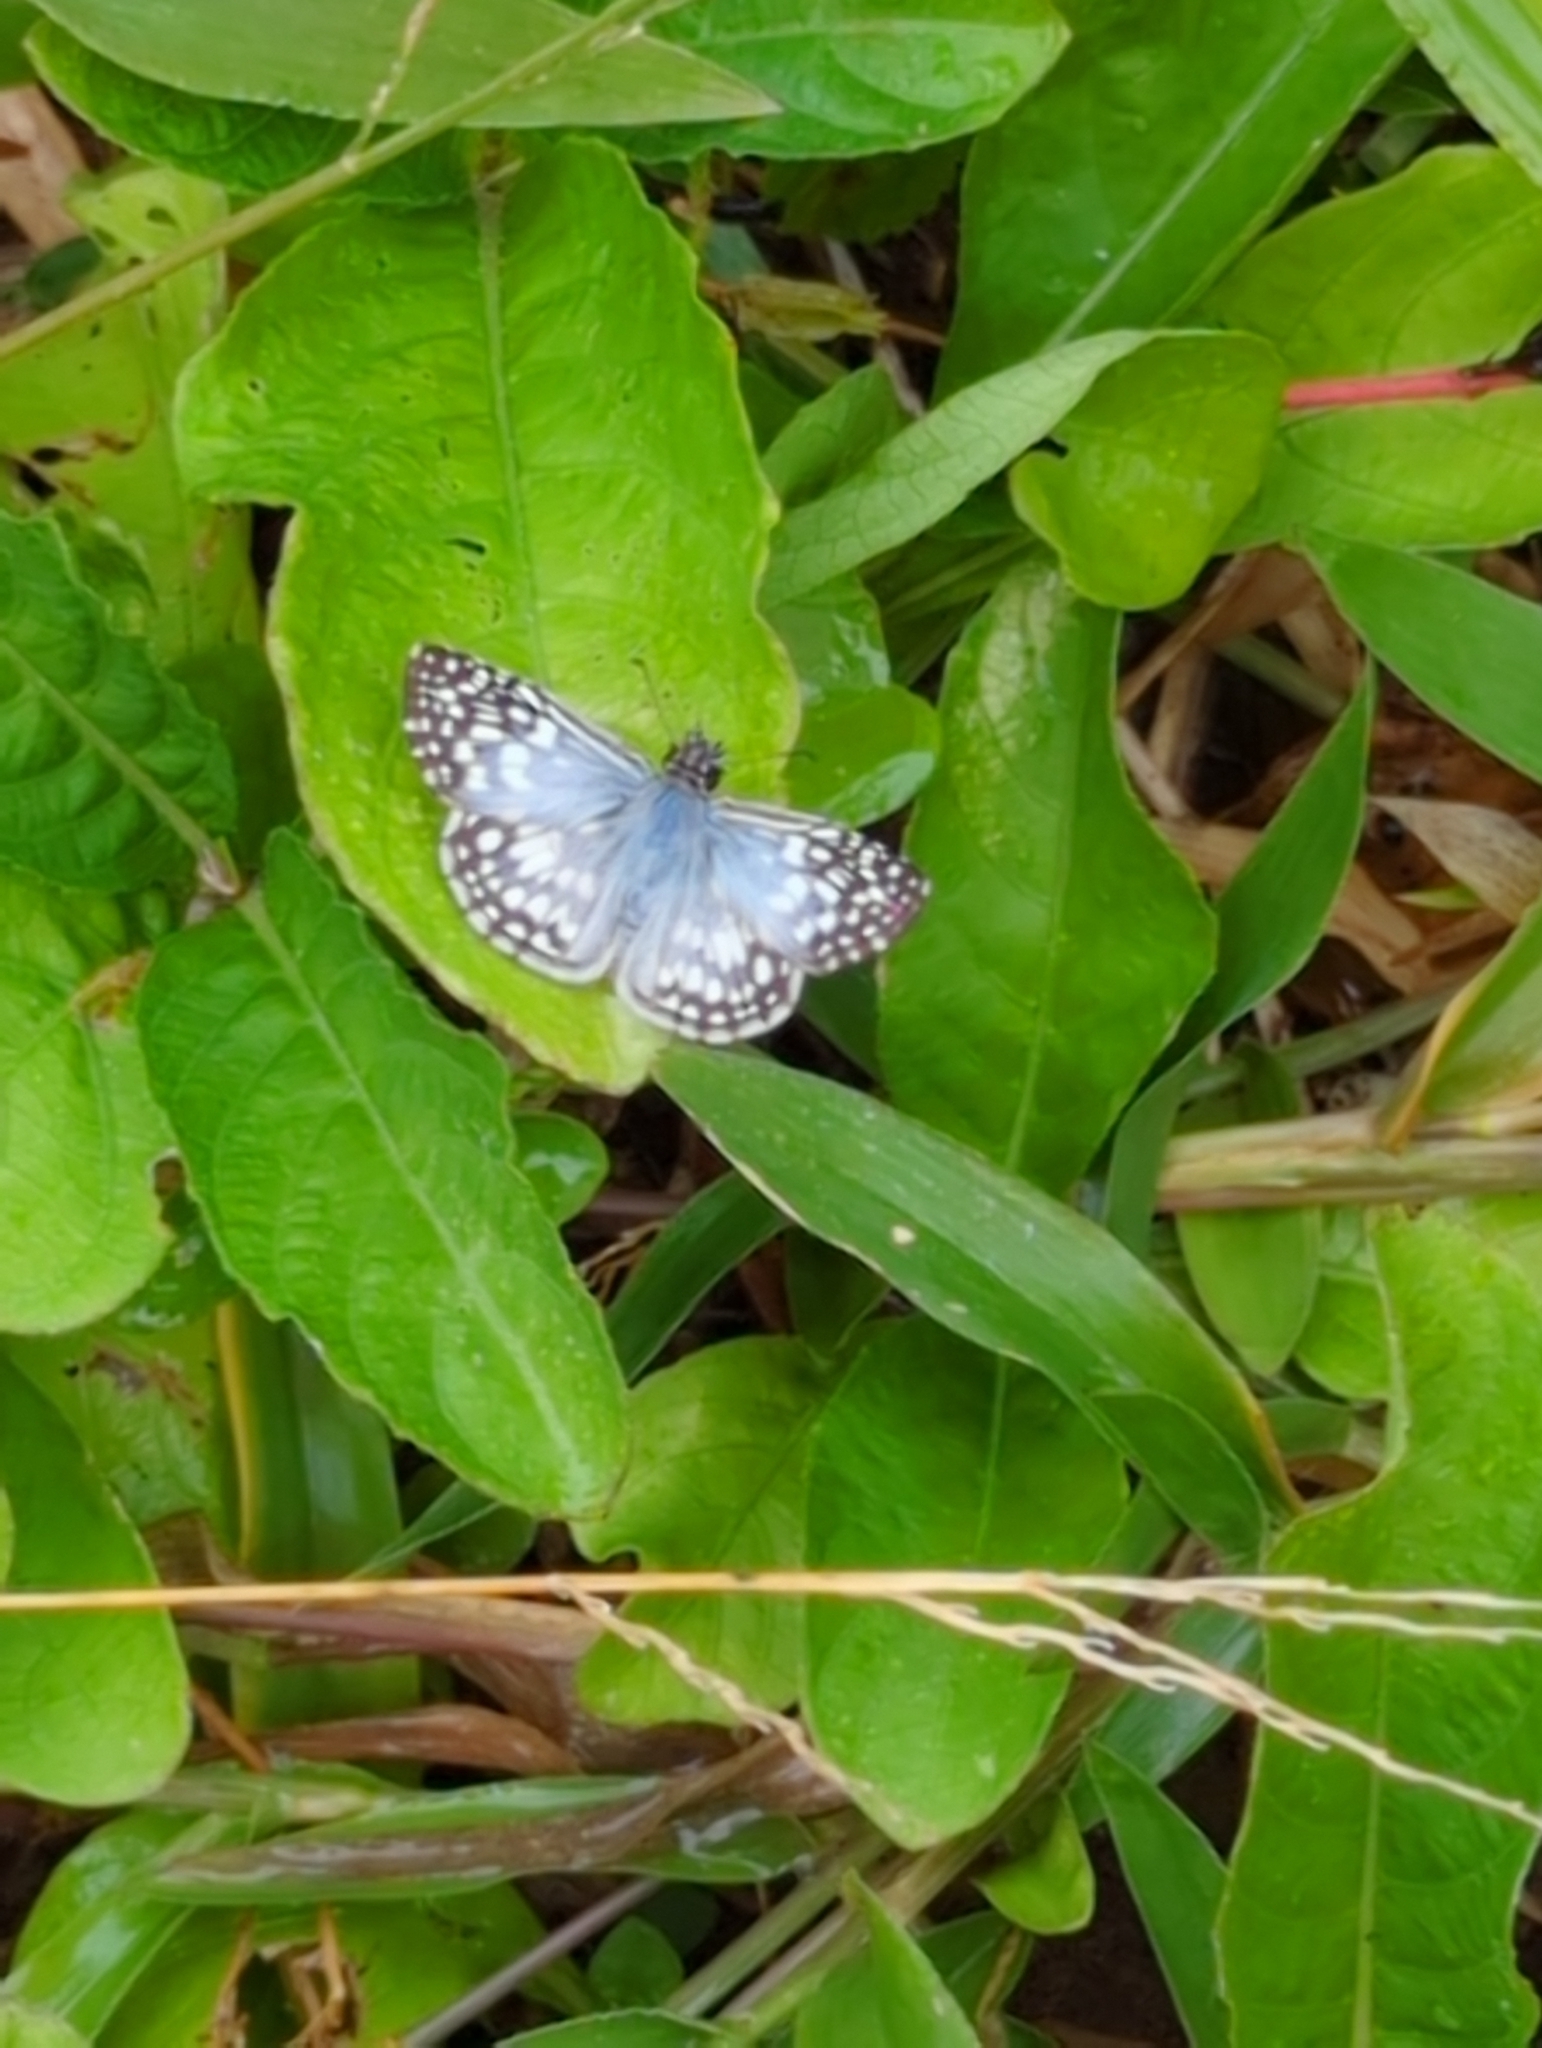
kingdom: Animalia
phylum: Arthropoda
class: Insecta
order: Lepidoptera
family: Hesperiidae
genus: Pyrgus
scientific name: Pyrgus oileus
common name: Tropical checkered-skipper
